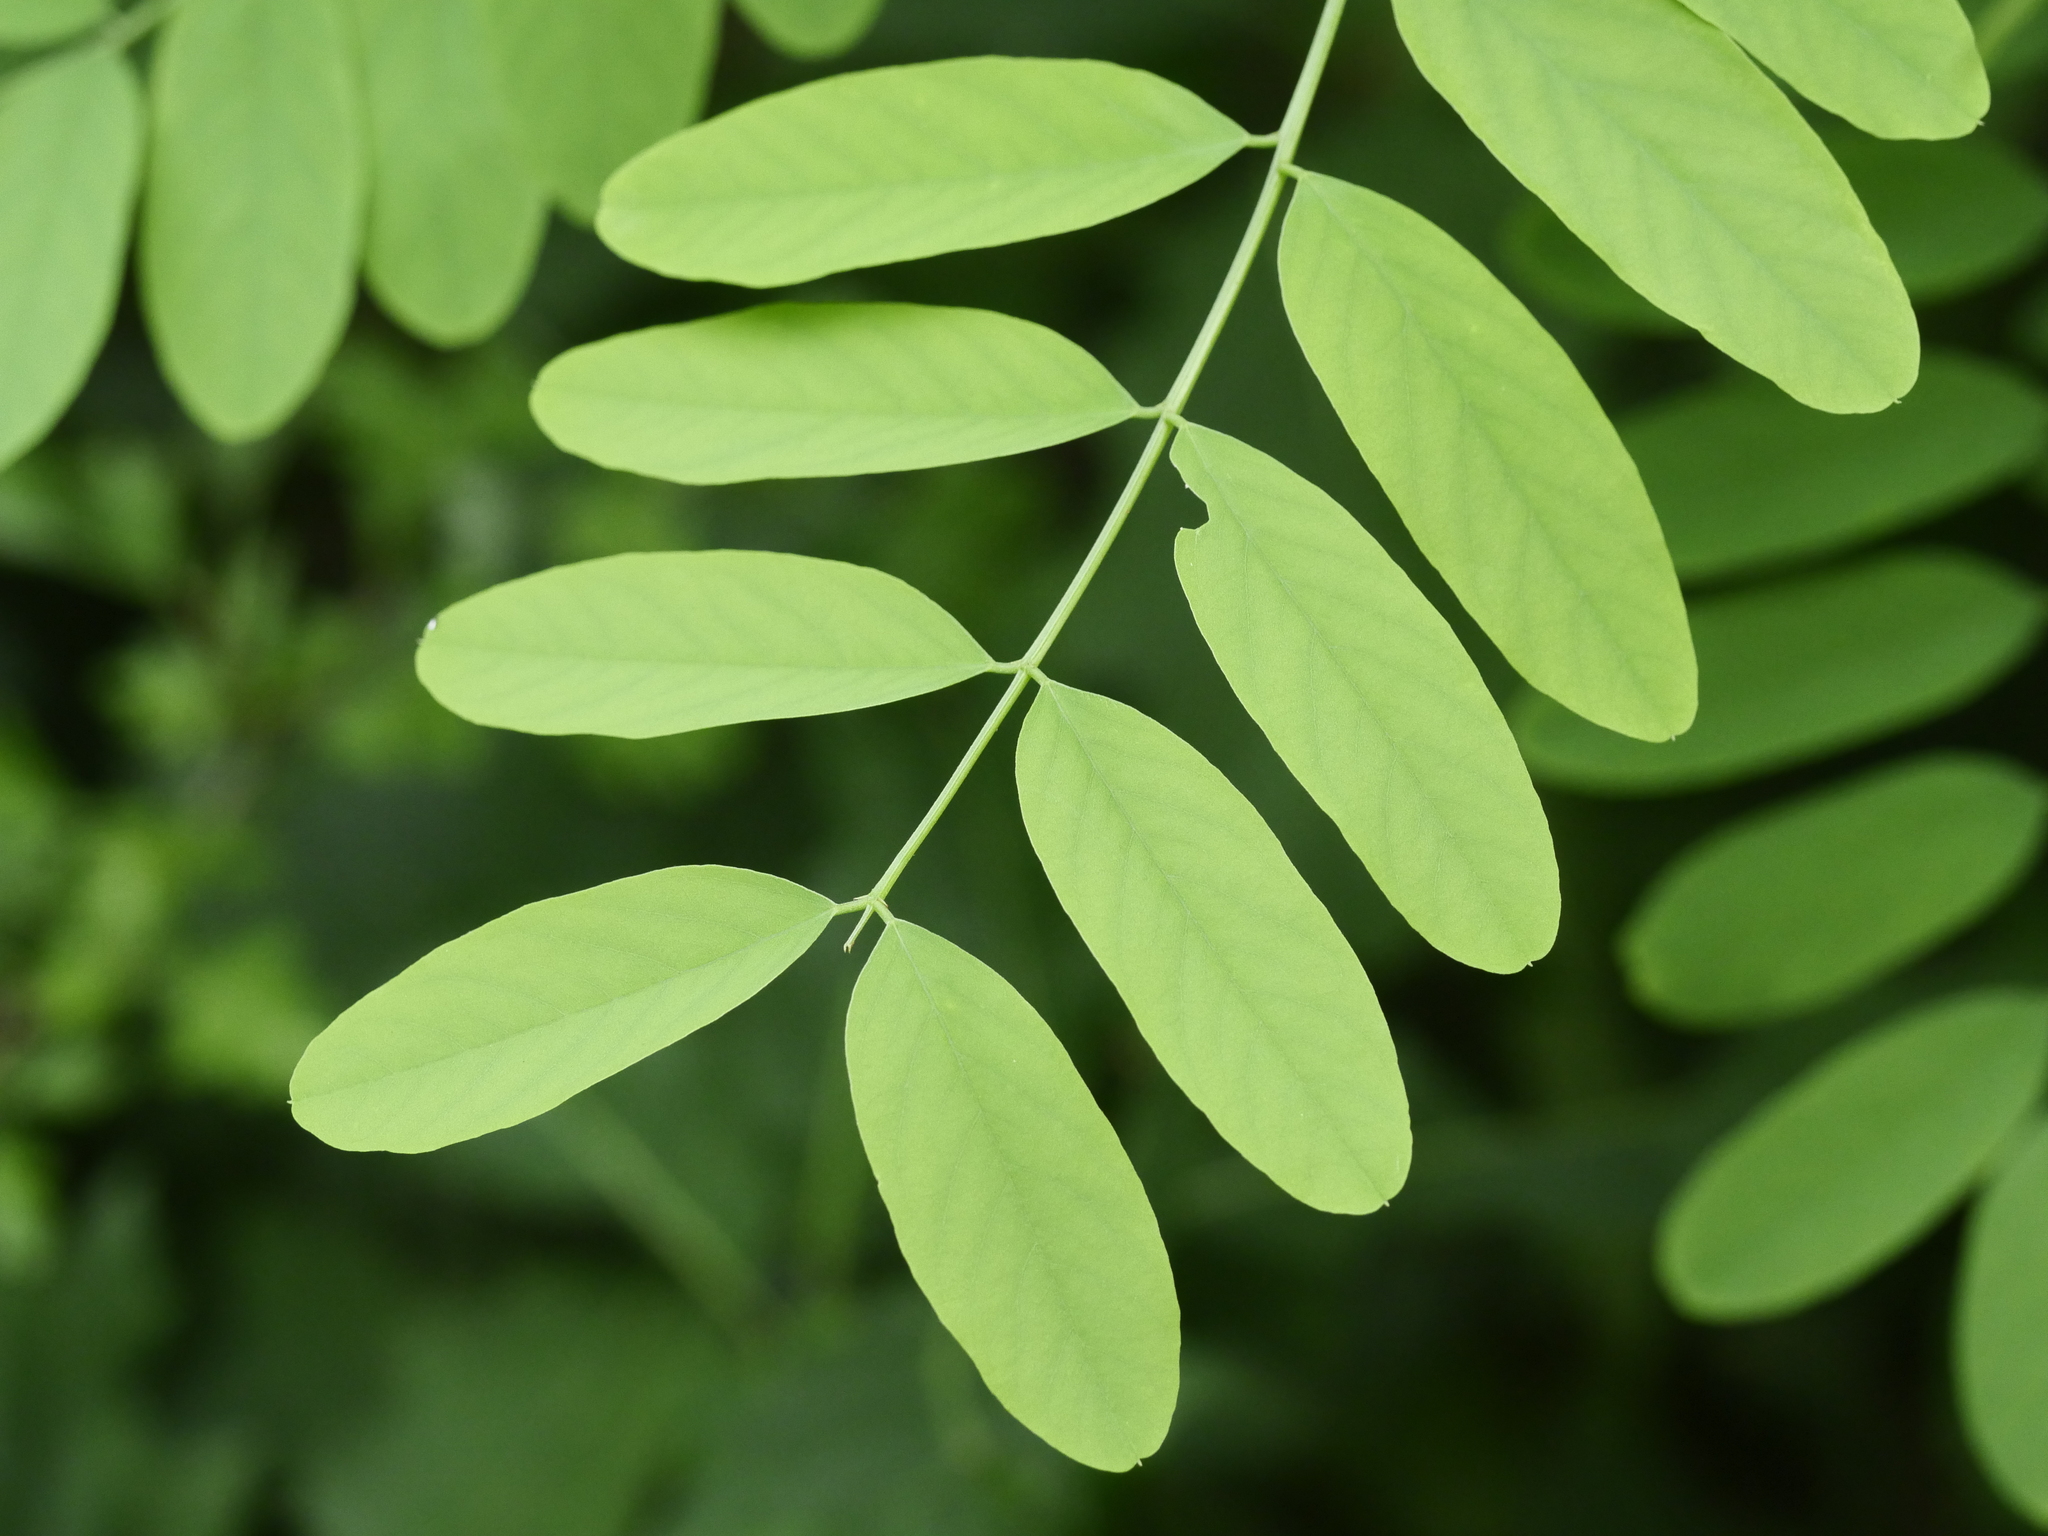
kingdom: Plantae
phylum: Tracheophyta
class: Magnoliopsida
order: Fabales
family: Fabaceae
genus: Robinia
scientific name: Robinia pseudoacacia
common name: Black locust
